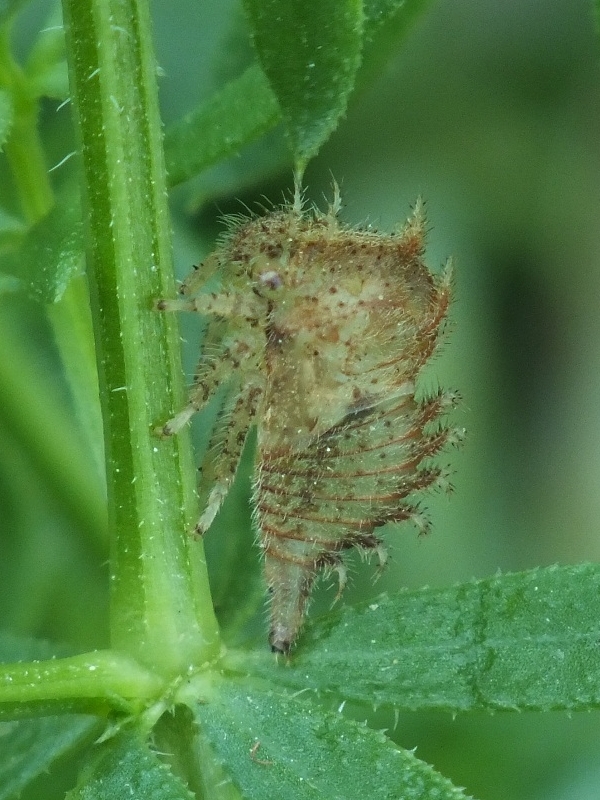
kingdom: Animalia
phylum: Arthropoda
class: Insecta
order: Hemiptera
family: Membracidae
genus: Stictocephala
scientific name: Stictocephala bisonia
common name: American buffalo treehopper
